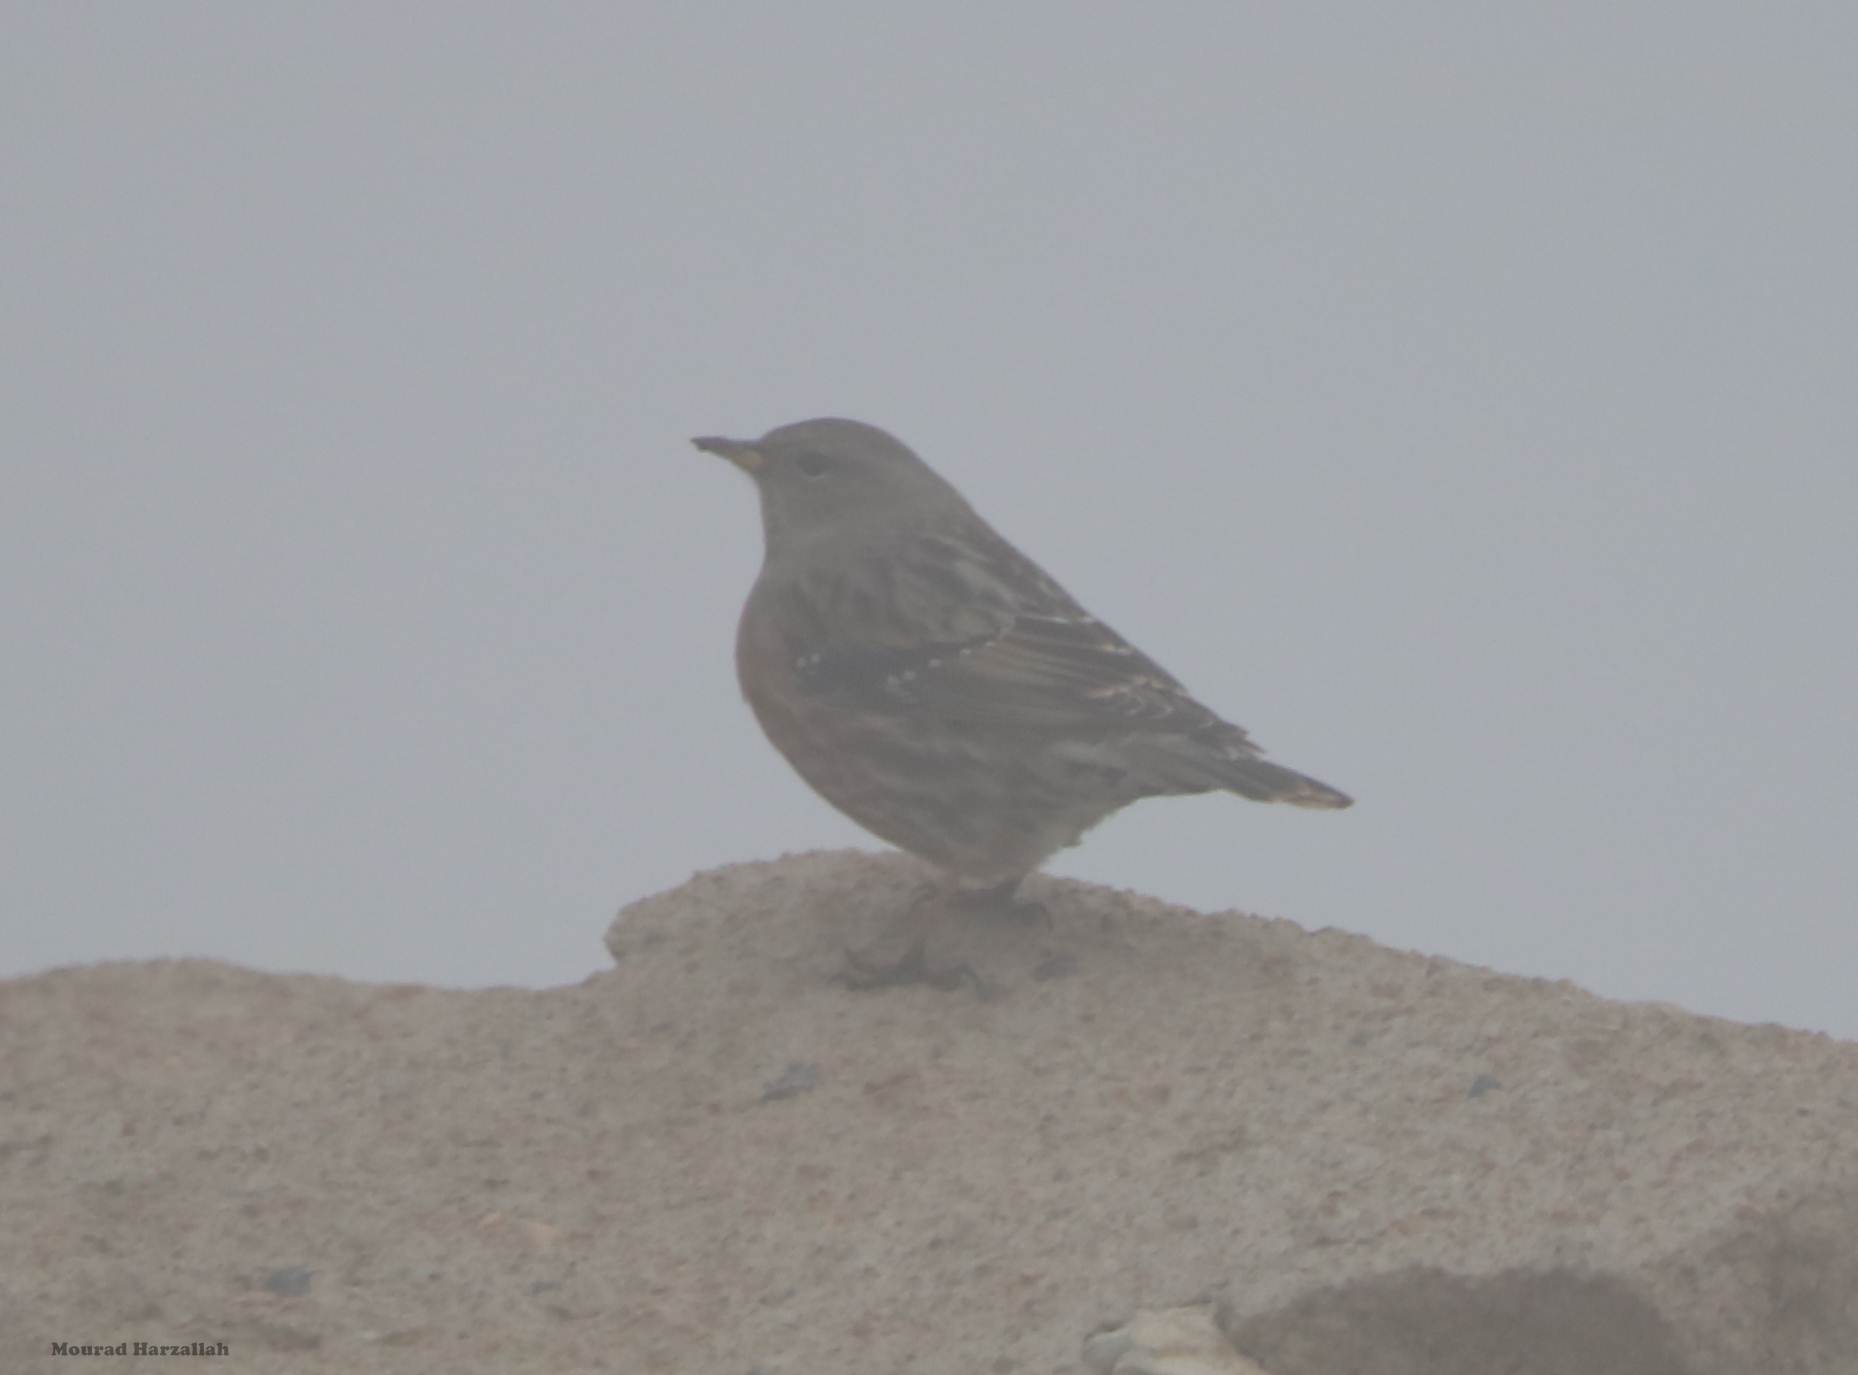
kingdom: Animalia
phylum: Chordata
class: Aves
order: Passeriformes
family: Prunellidae
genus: Prunella
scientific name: Prunella collaris
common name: Alpine accentor
